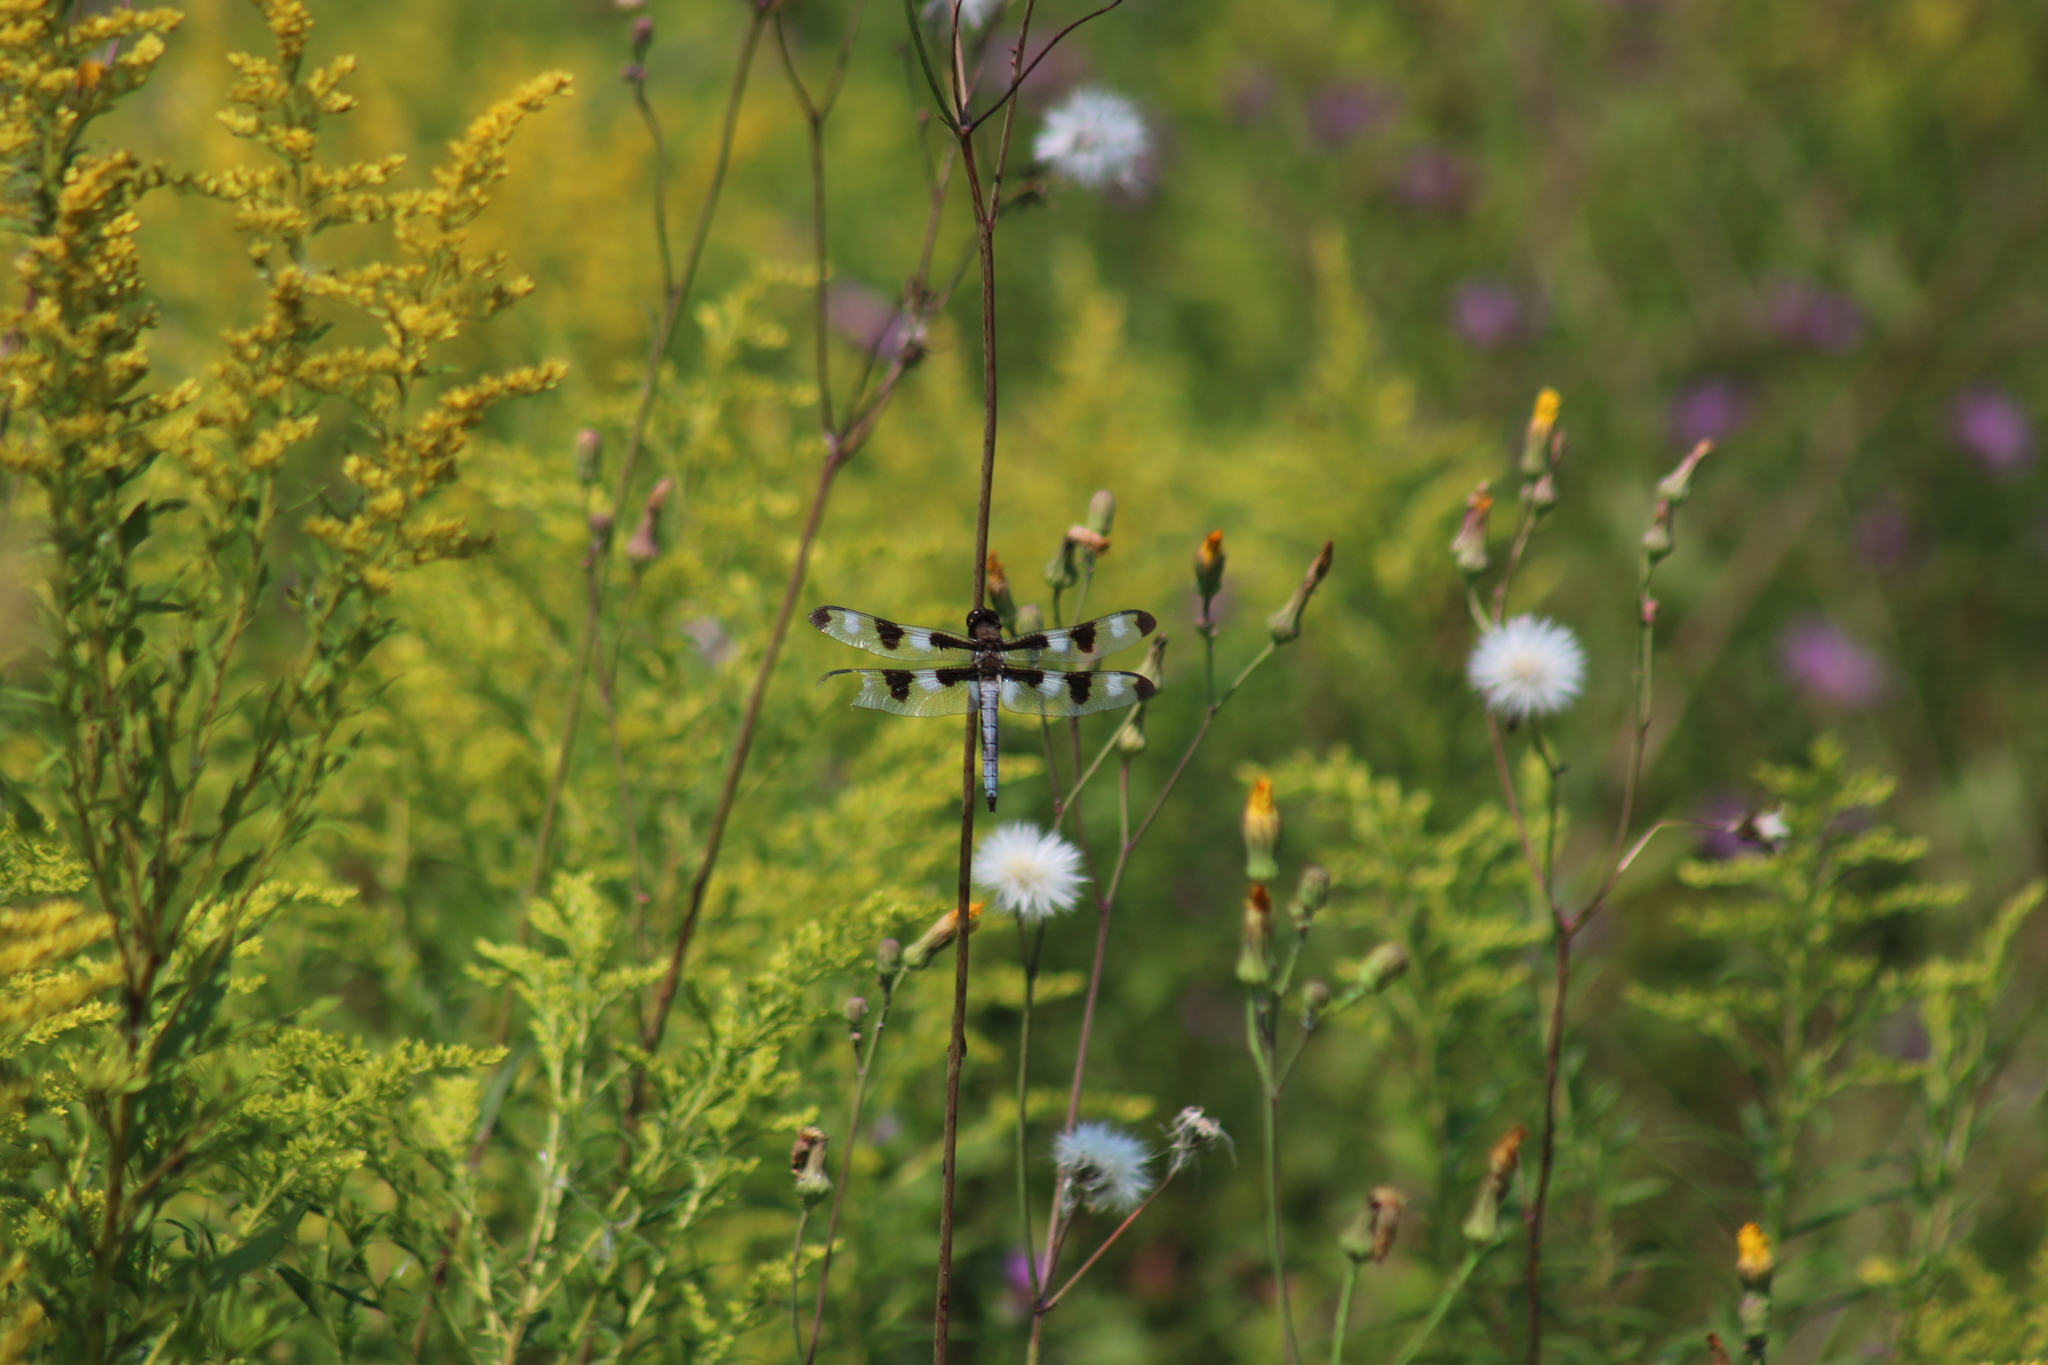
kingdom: Animalia
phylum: Arthropoda
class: Insecta
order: Odonata
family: Libellulidae
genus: Libellula
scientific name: Libellula pulchella
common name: Twelve-spotted skimmer
